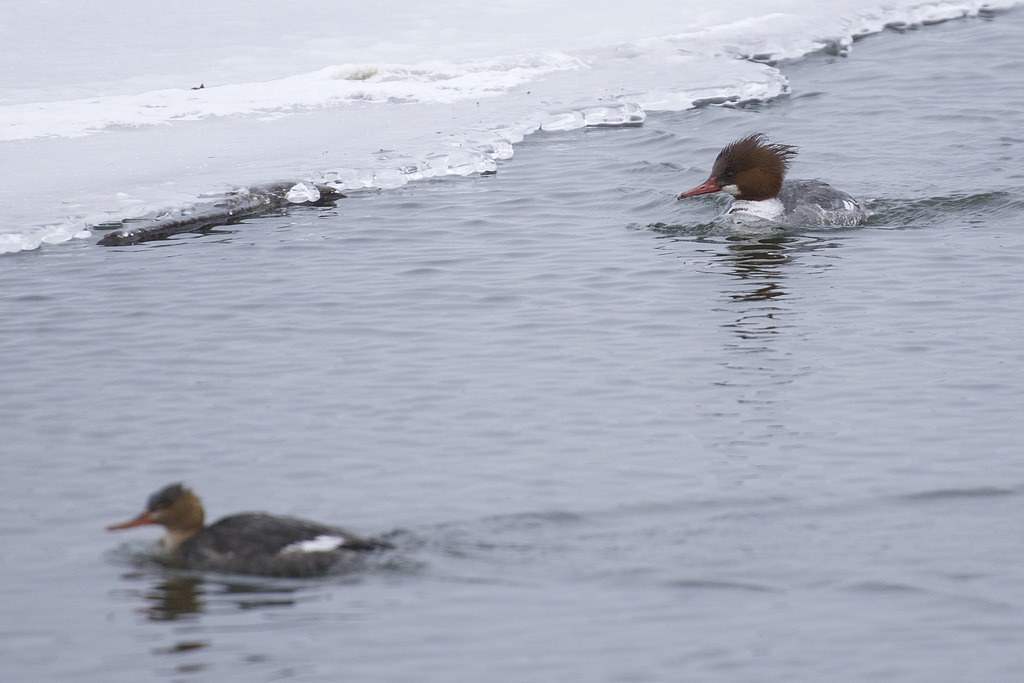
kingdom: Animalia
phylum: Chordata
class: Aves
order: Anseriformes
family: Anatidae
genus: Mergus
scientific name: Mergus merganser
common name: Common merganser
